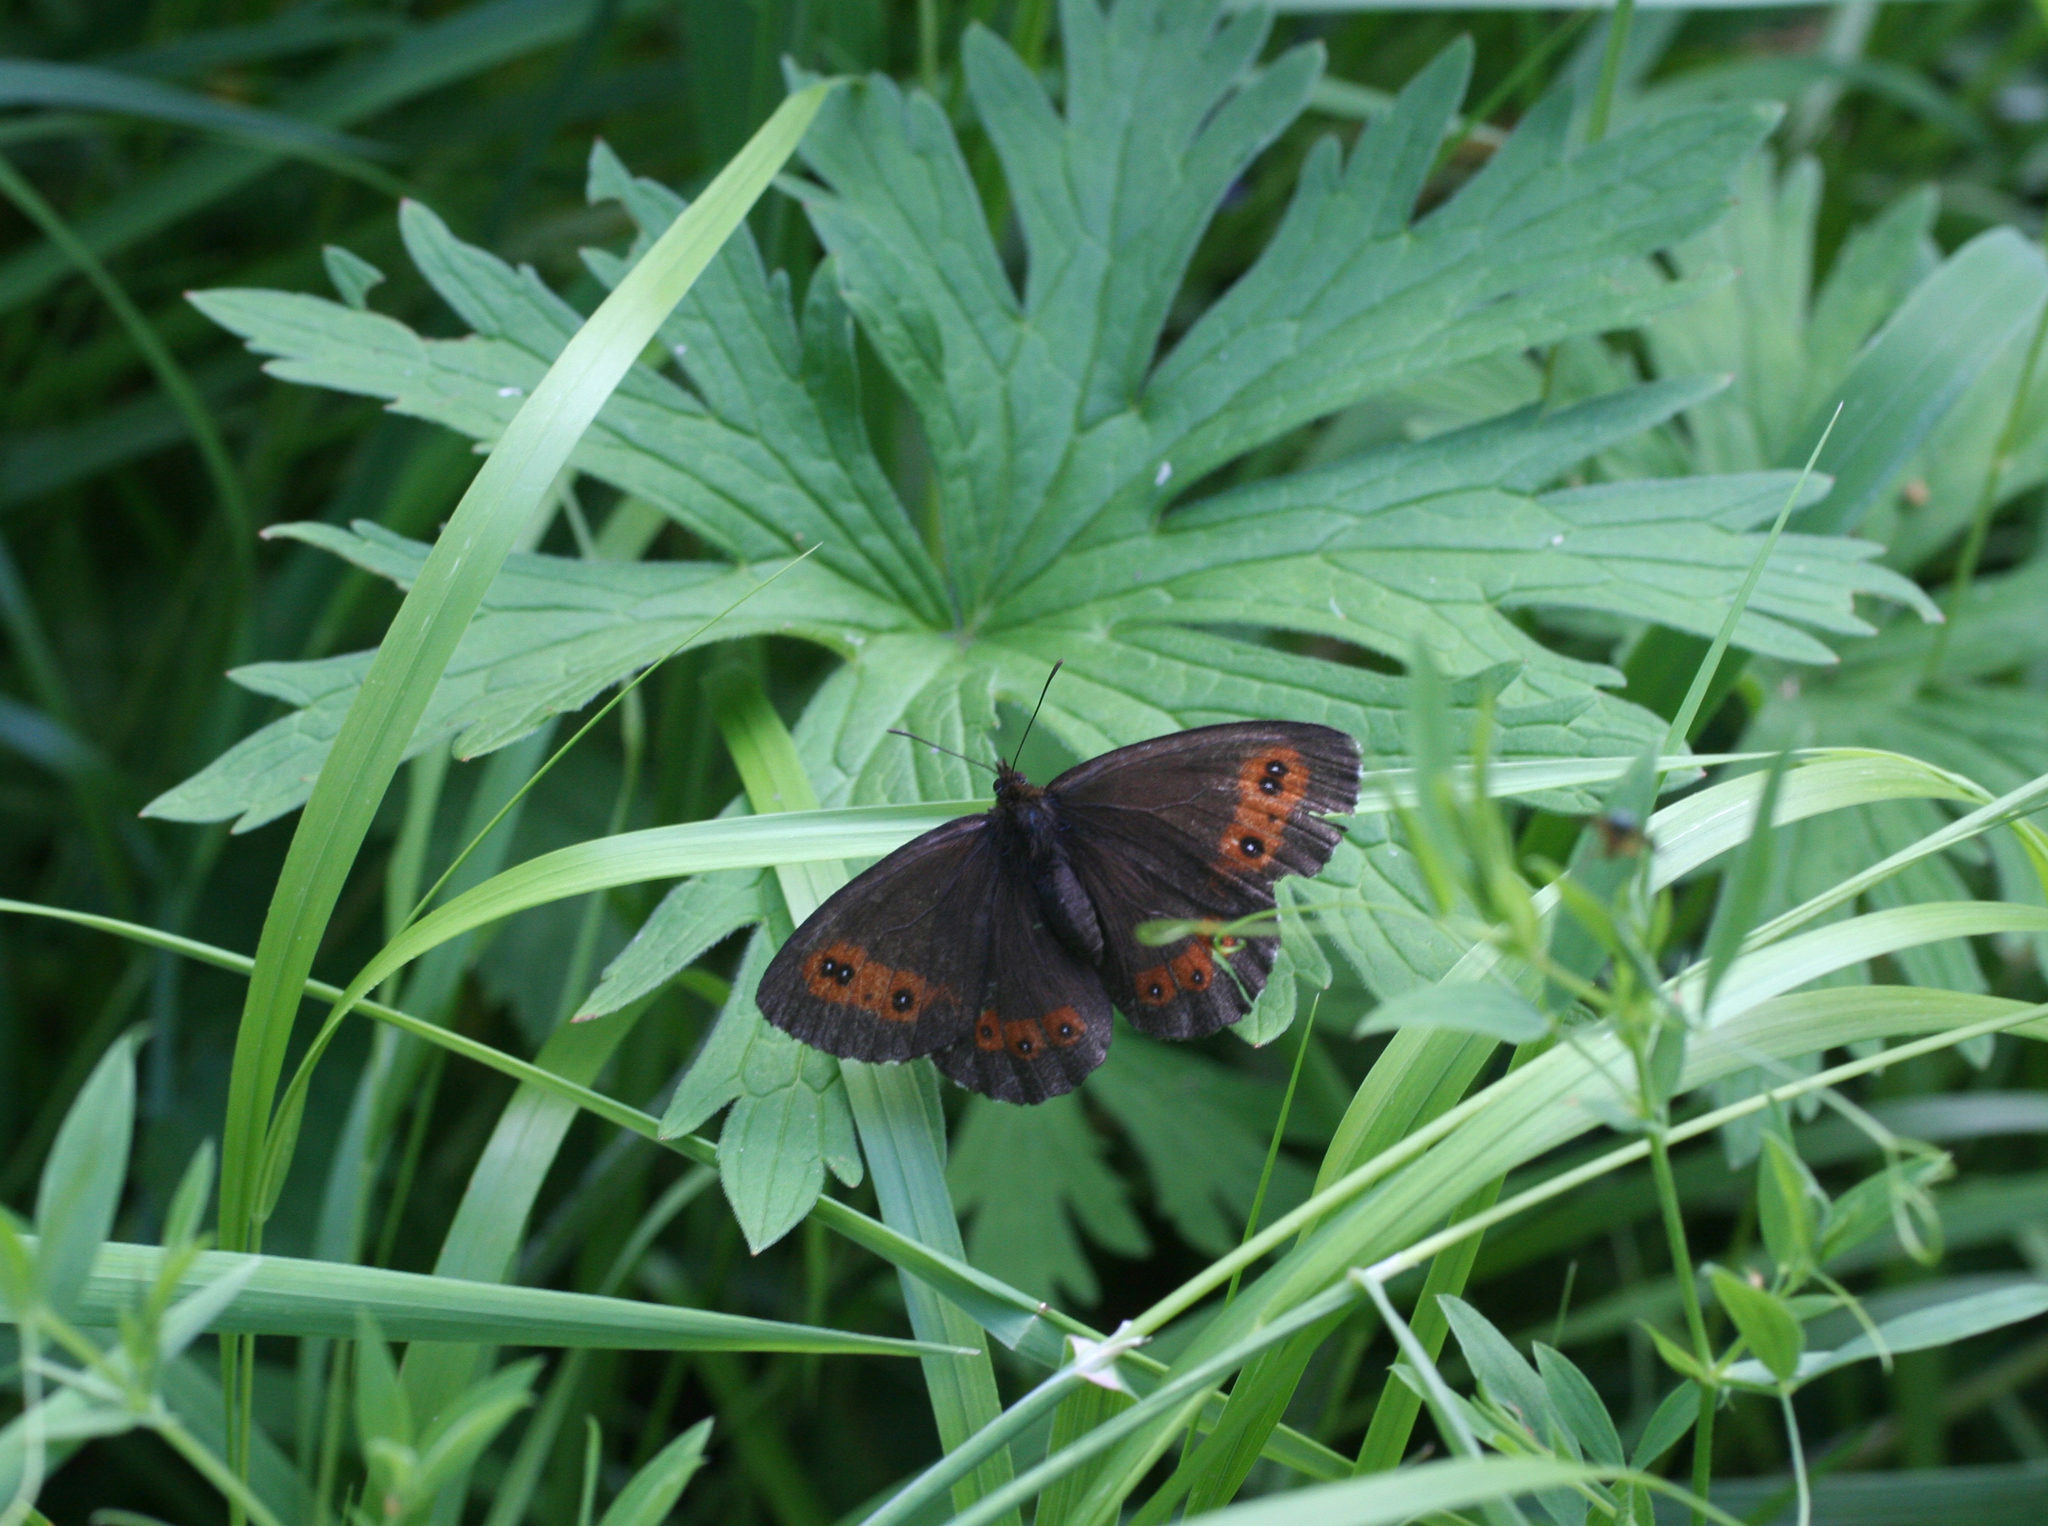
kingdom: Animalia
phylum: Arthropoda
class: Insecta
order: Lepidoptera
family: Nymphalidae
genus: Erebia
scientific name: Erebia ligea
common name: Arran brown
